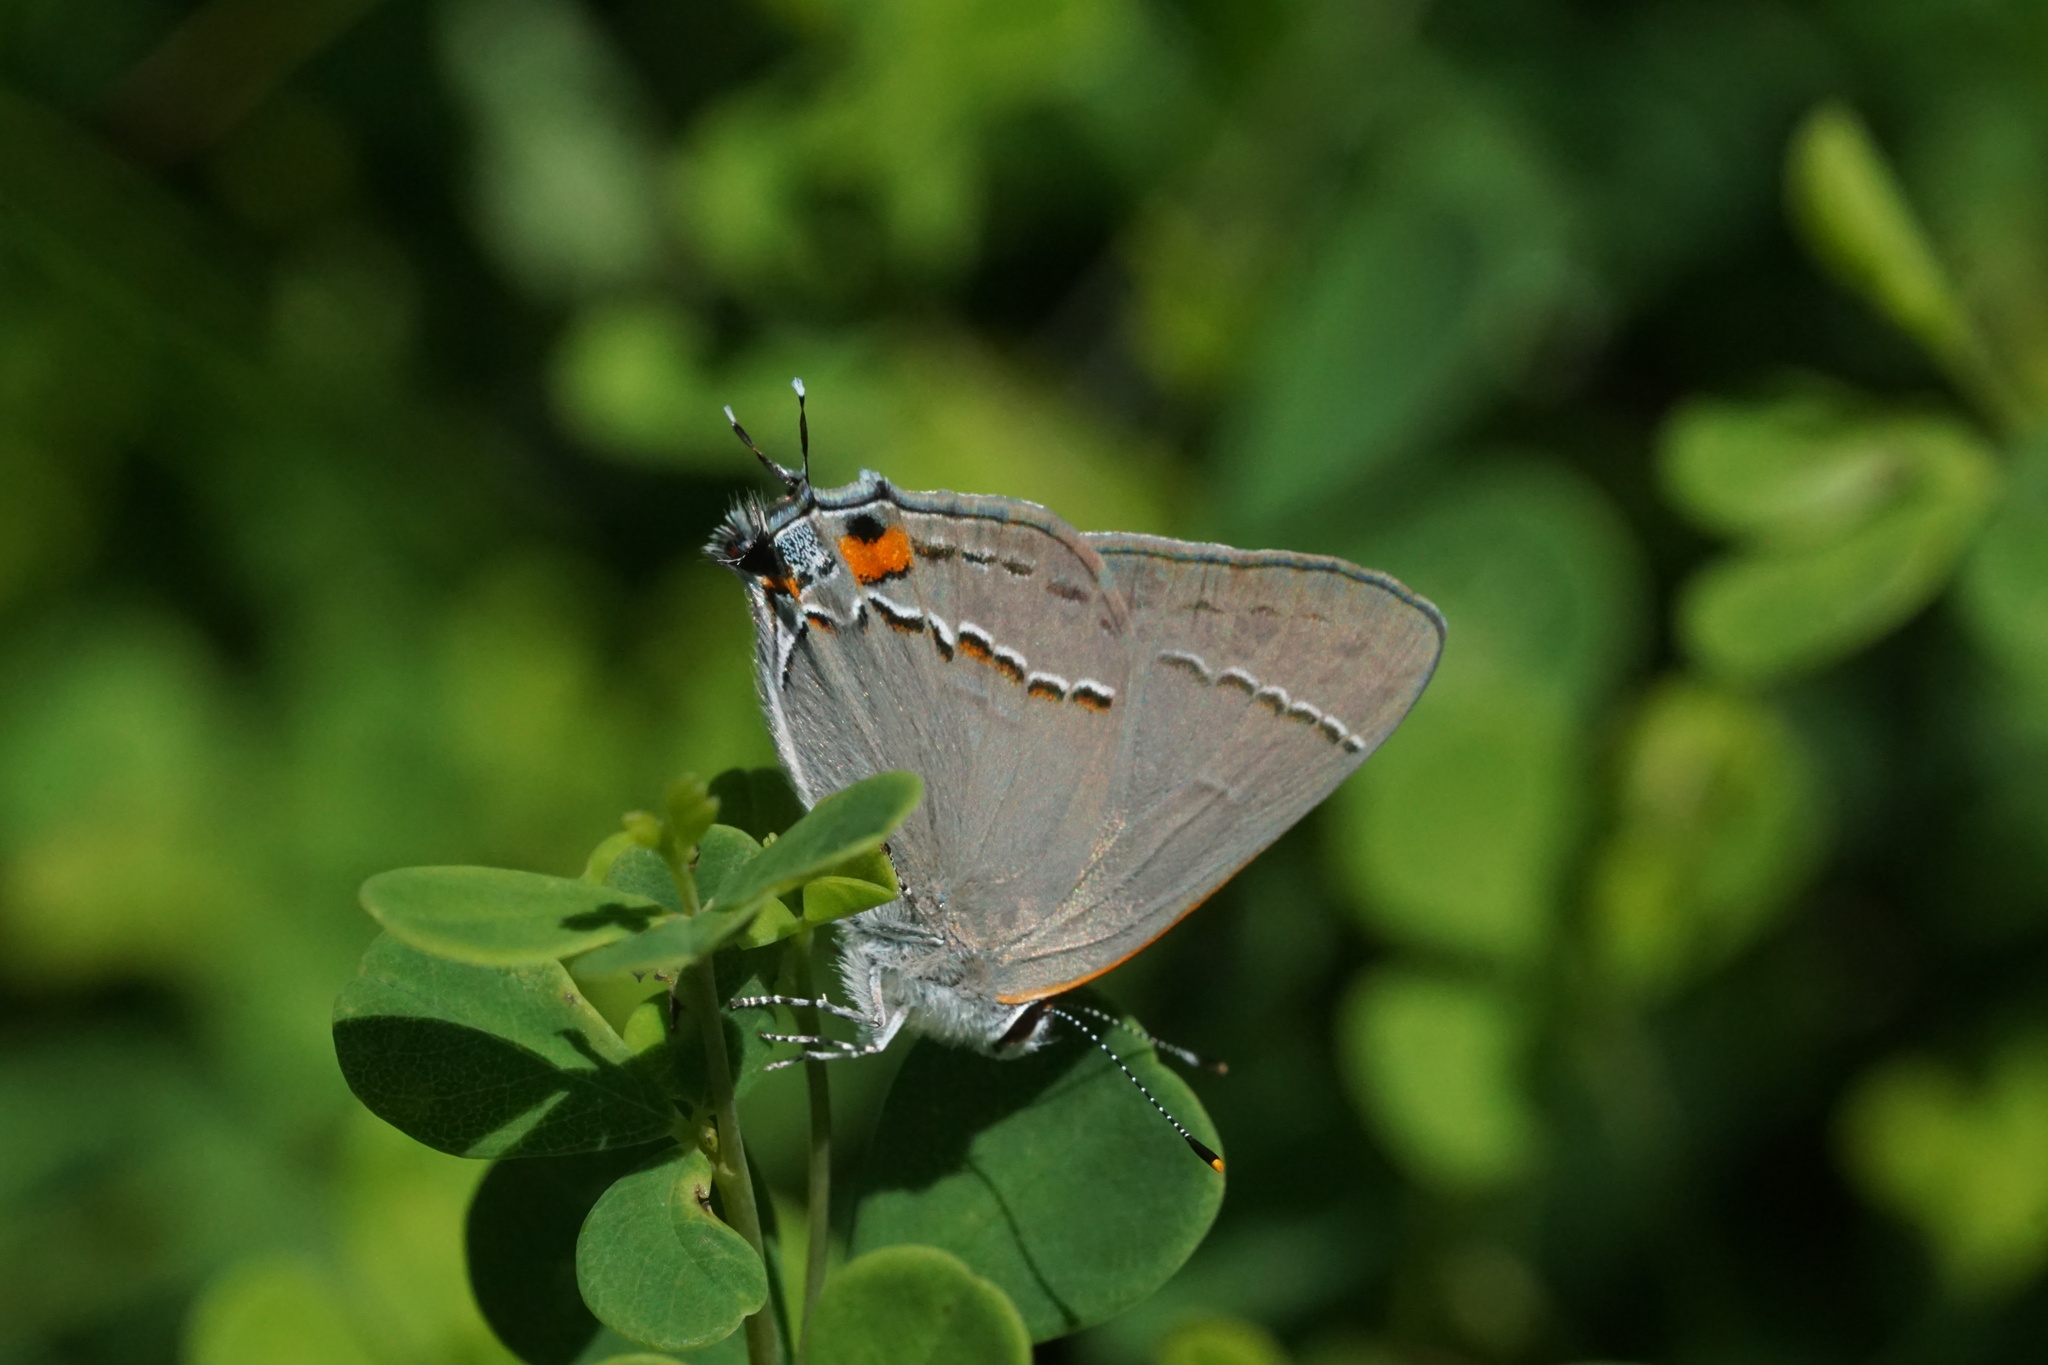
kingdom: Animalia
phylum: Arthropoda
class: Insecta
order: Lepidoptera
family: Lycaenidae
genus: Strymon
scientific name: Strymon melinus
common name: Gray hairstreak
